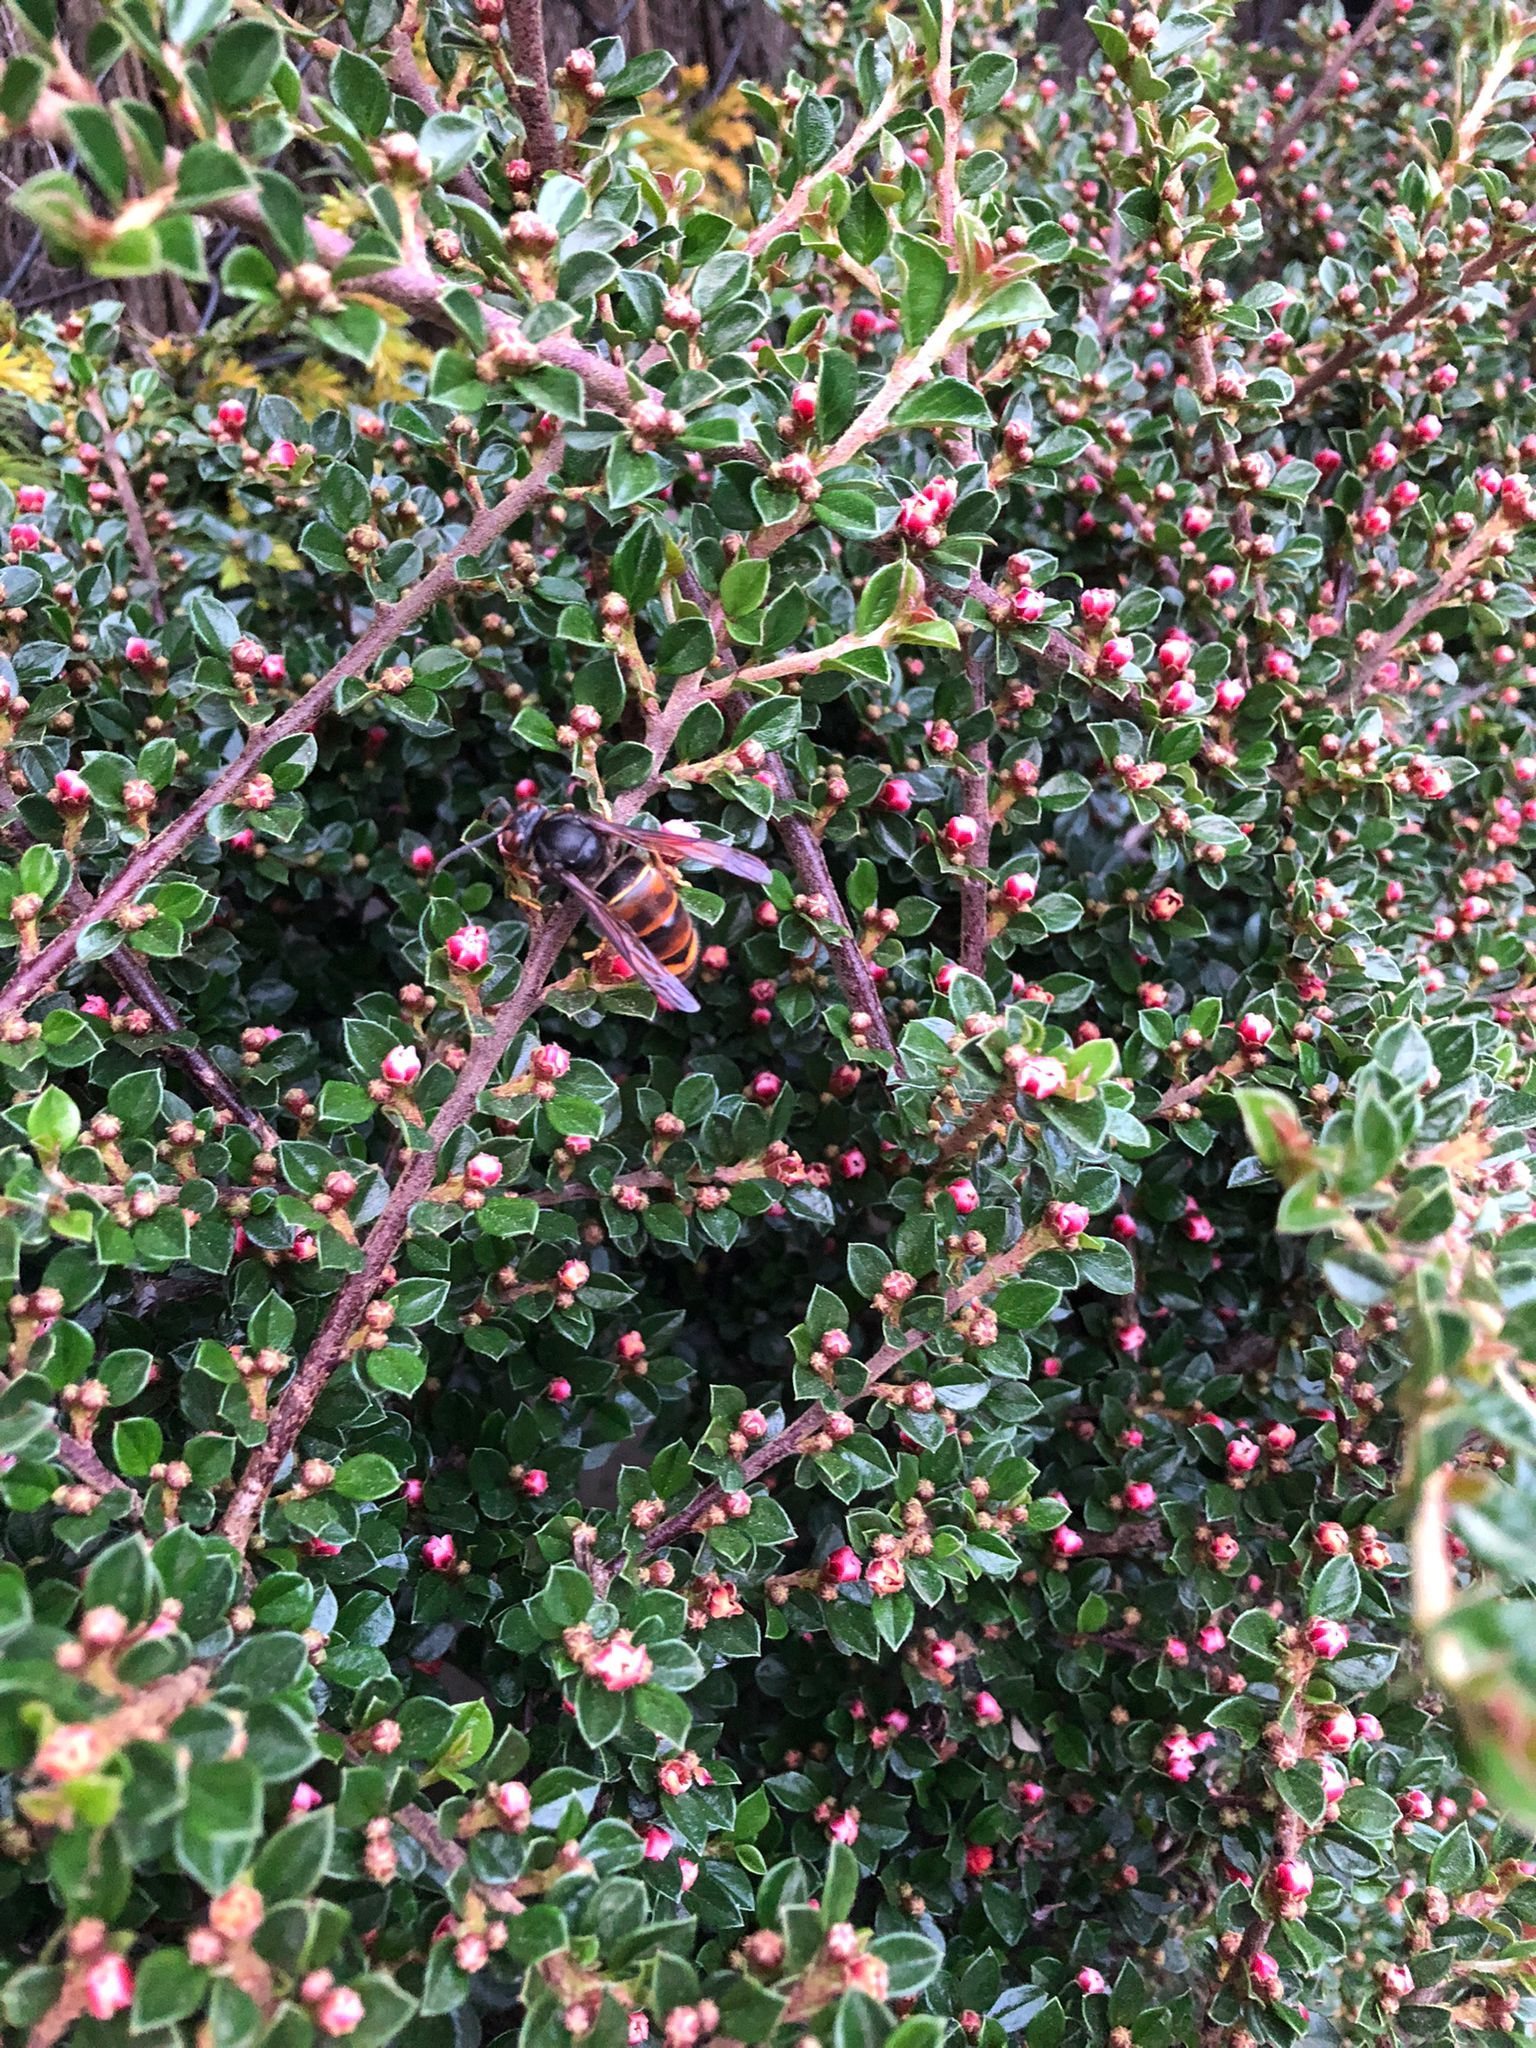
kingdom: Animalia
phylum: Arthropoda
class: Insecta
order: Hymenoptera
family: Vespidae
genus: Vespa
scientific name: Vespa velutina
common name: Asian hornet
